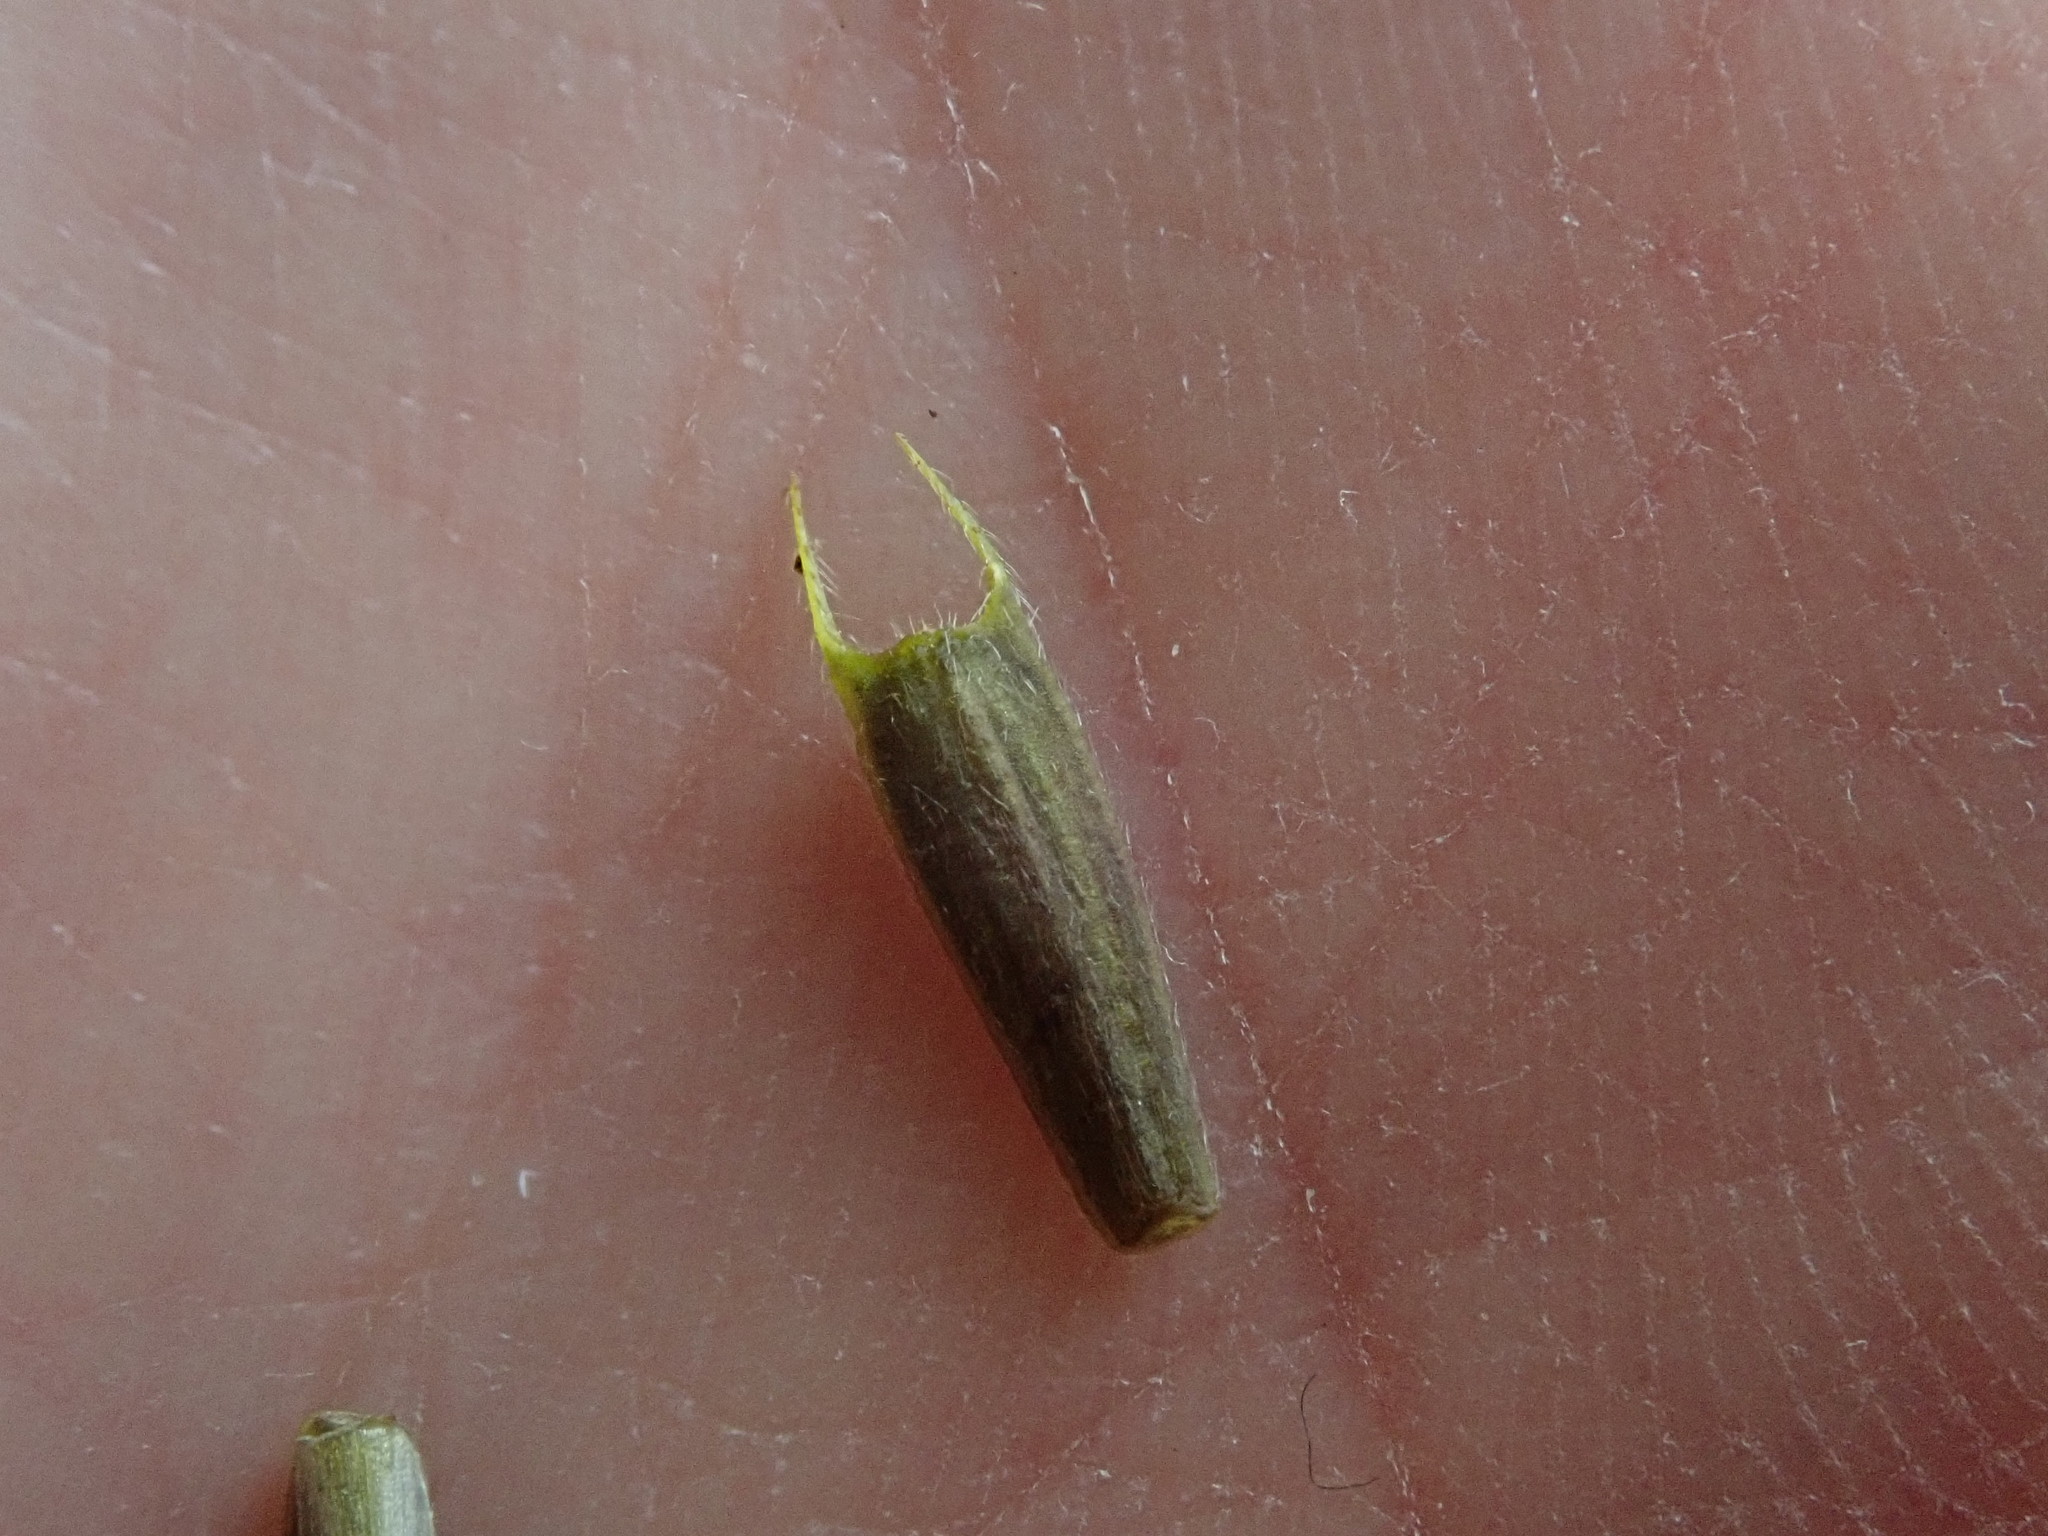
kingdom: Plantae
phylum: Tracheophyta
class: Magnoliopsida
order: Asterales
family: Asteraceae
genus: Bidens
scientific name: Bidens frondosa
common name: Beggarticks
